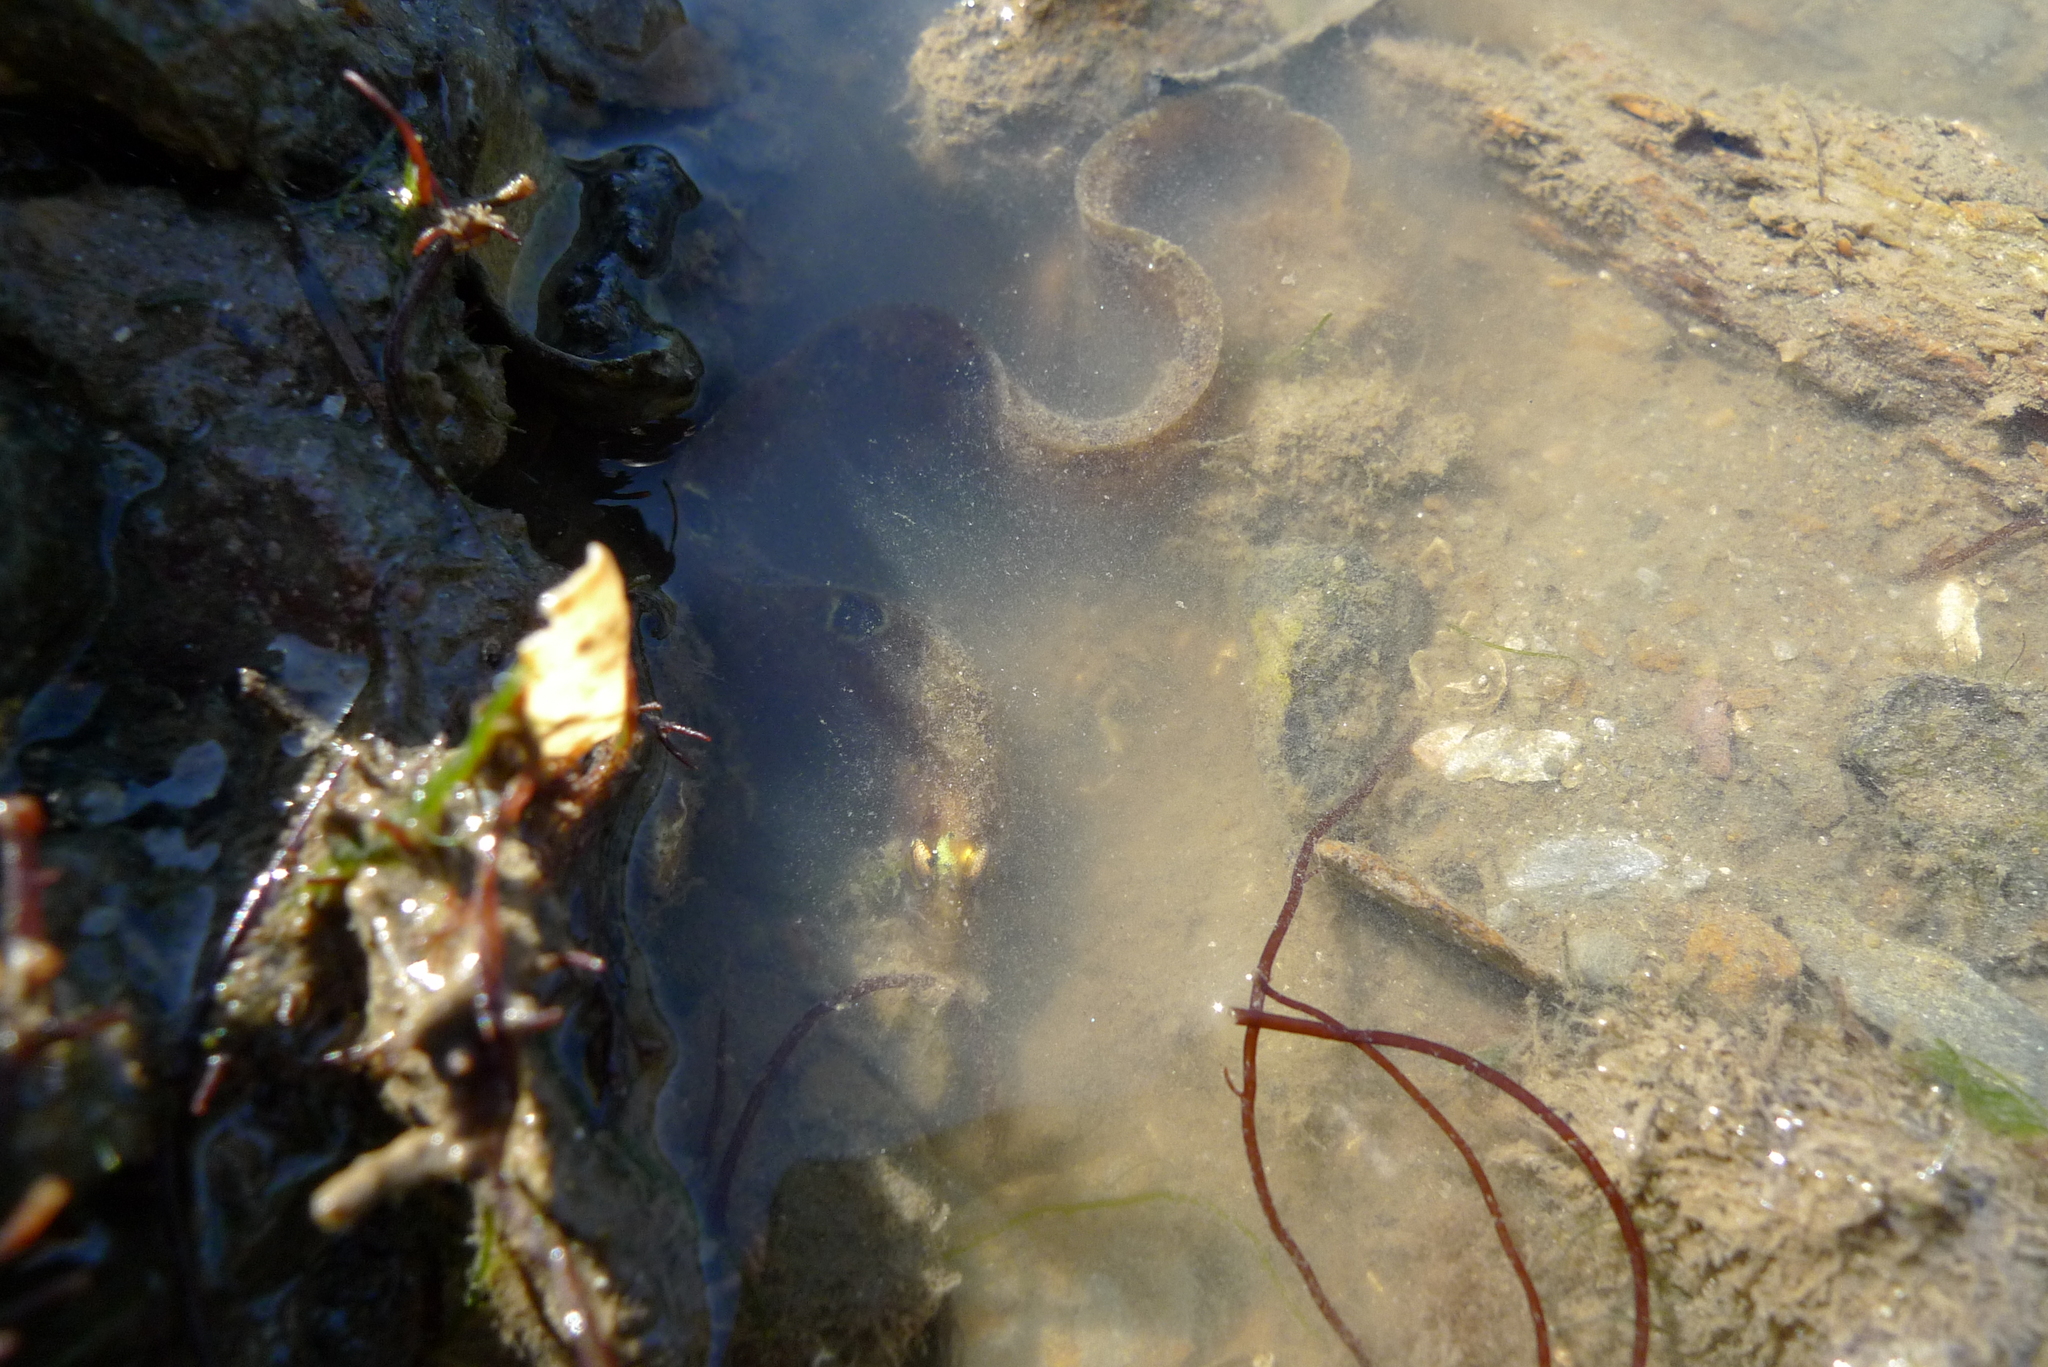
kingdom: Animalia
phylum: Chordata
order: Perciformes
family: Pholidae
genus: Pholis
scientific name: Pholis gunnellus
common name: Butterfish
